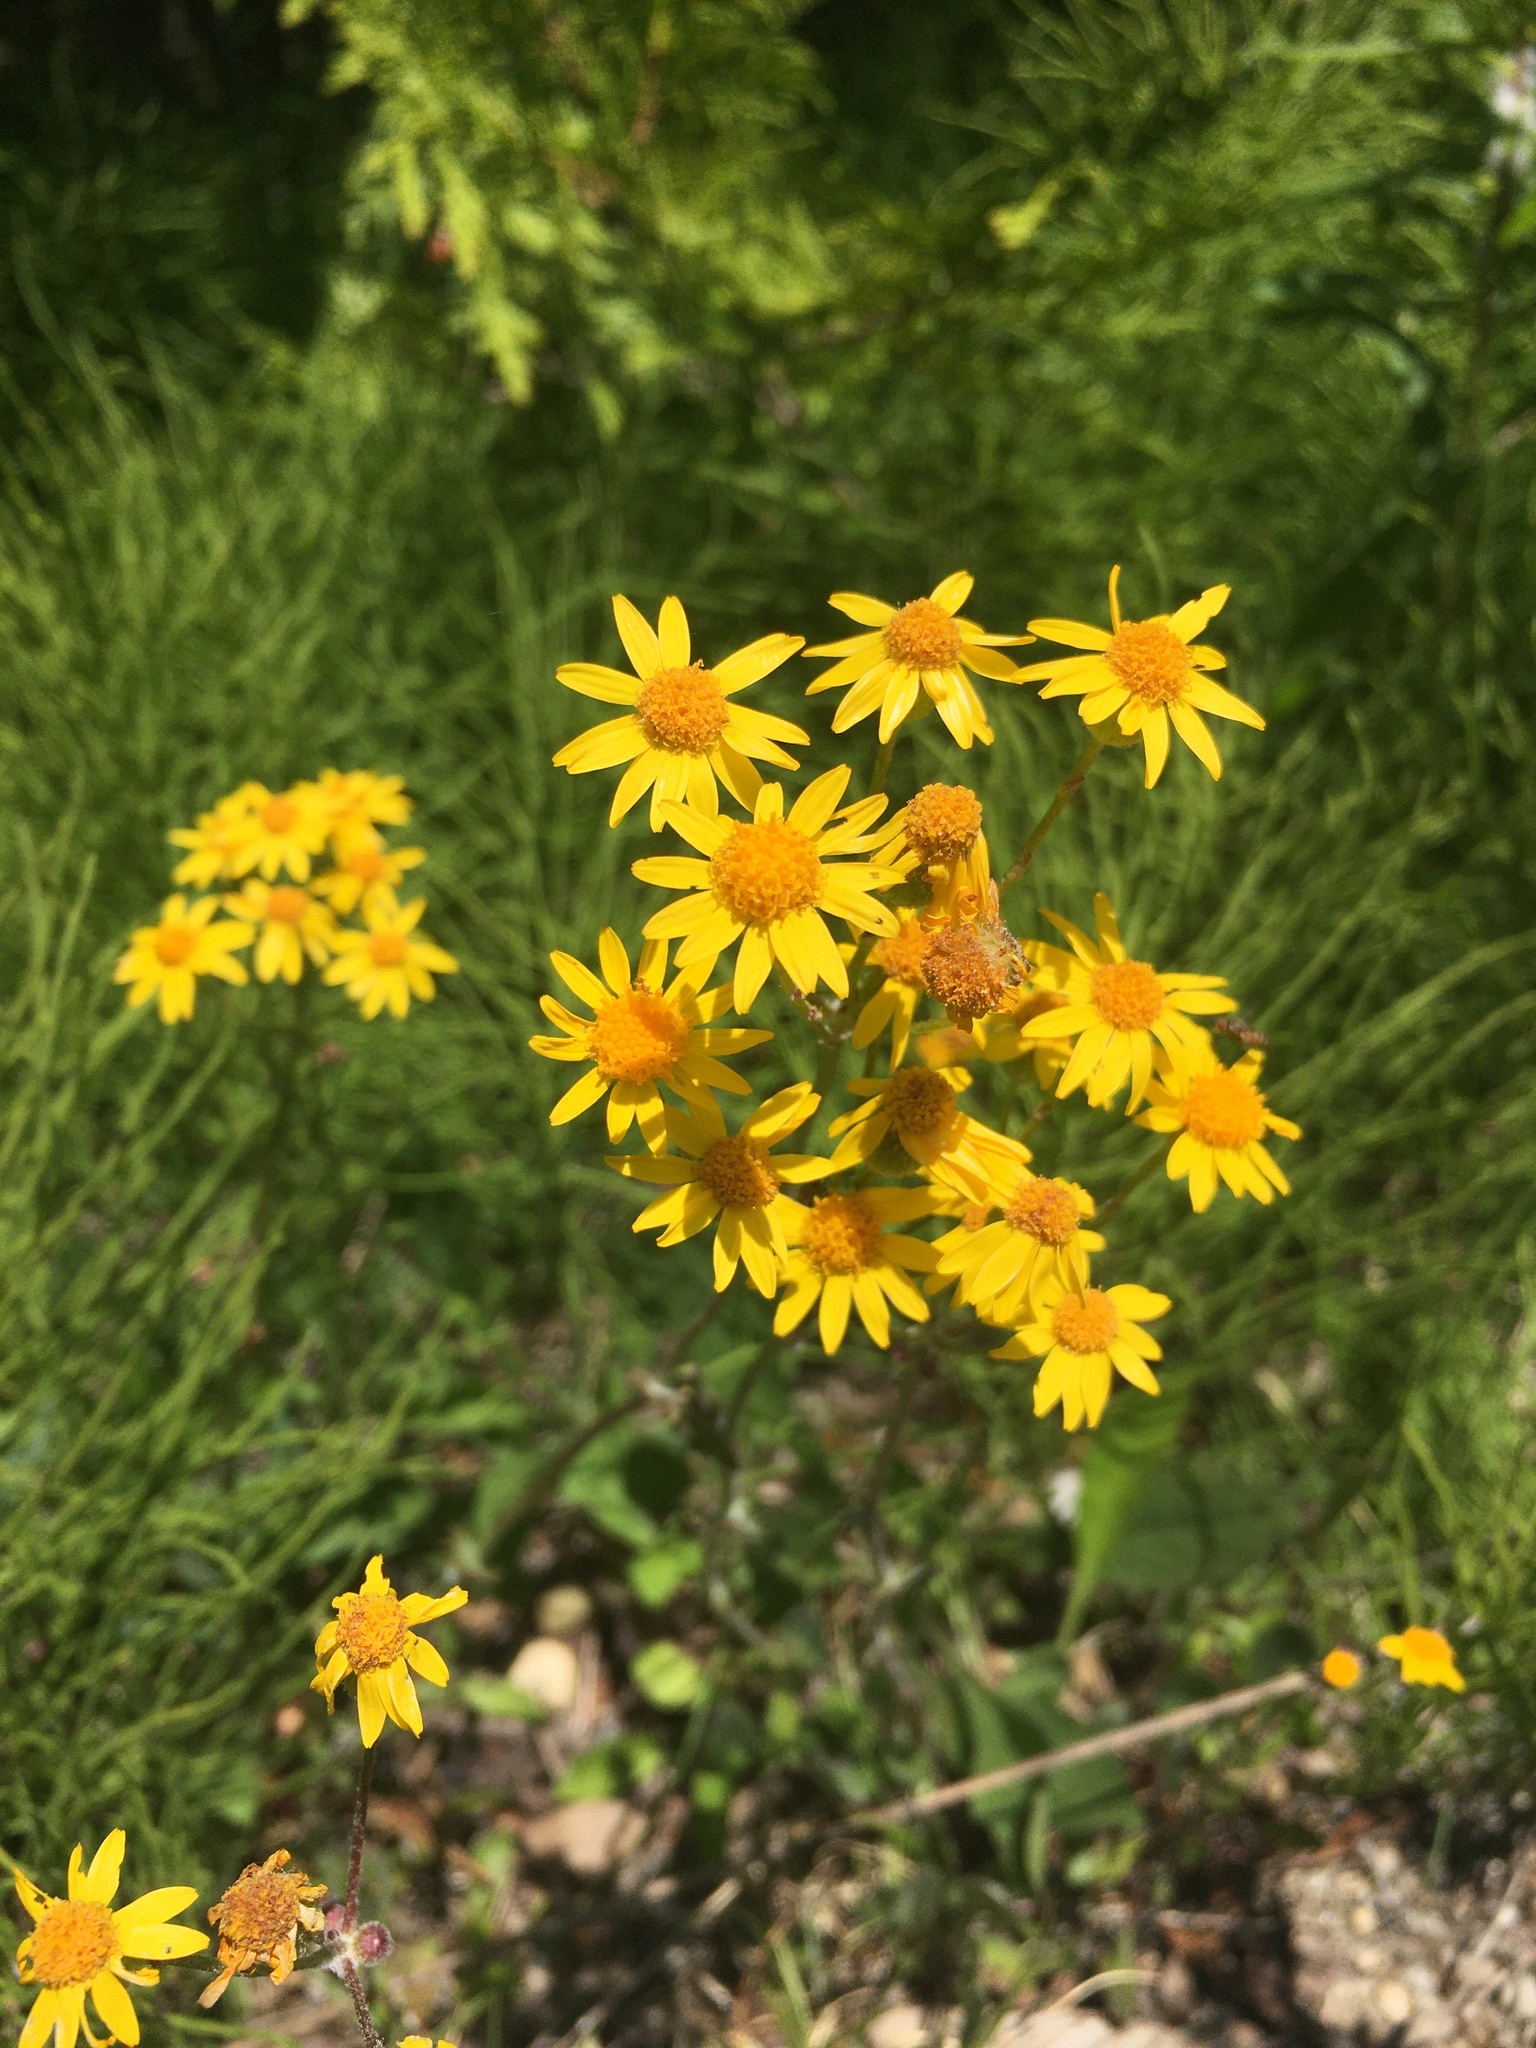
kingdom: Plantae
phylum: Tracheophyta
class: Magnoliopsida
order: Asterales
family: Asteraceae
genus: Packera
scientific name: Packera aurea
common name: Golden groundsel
